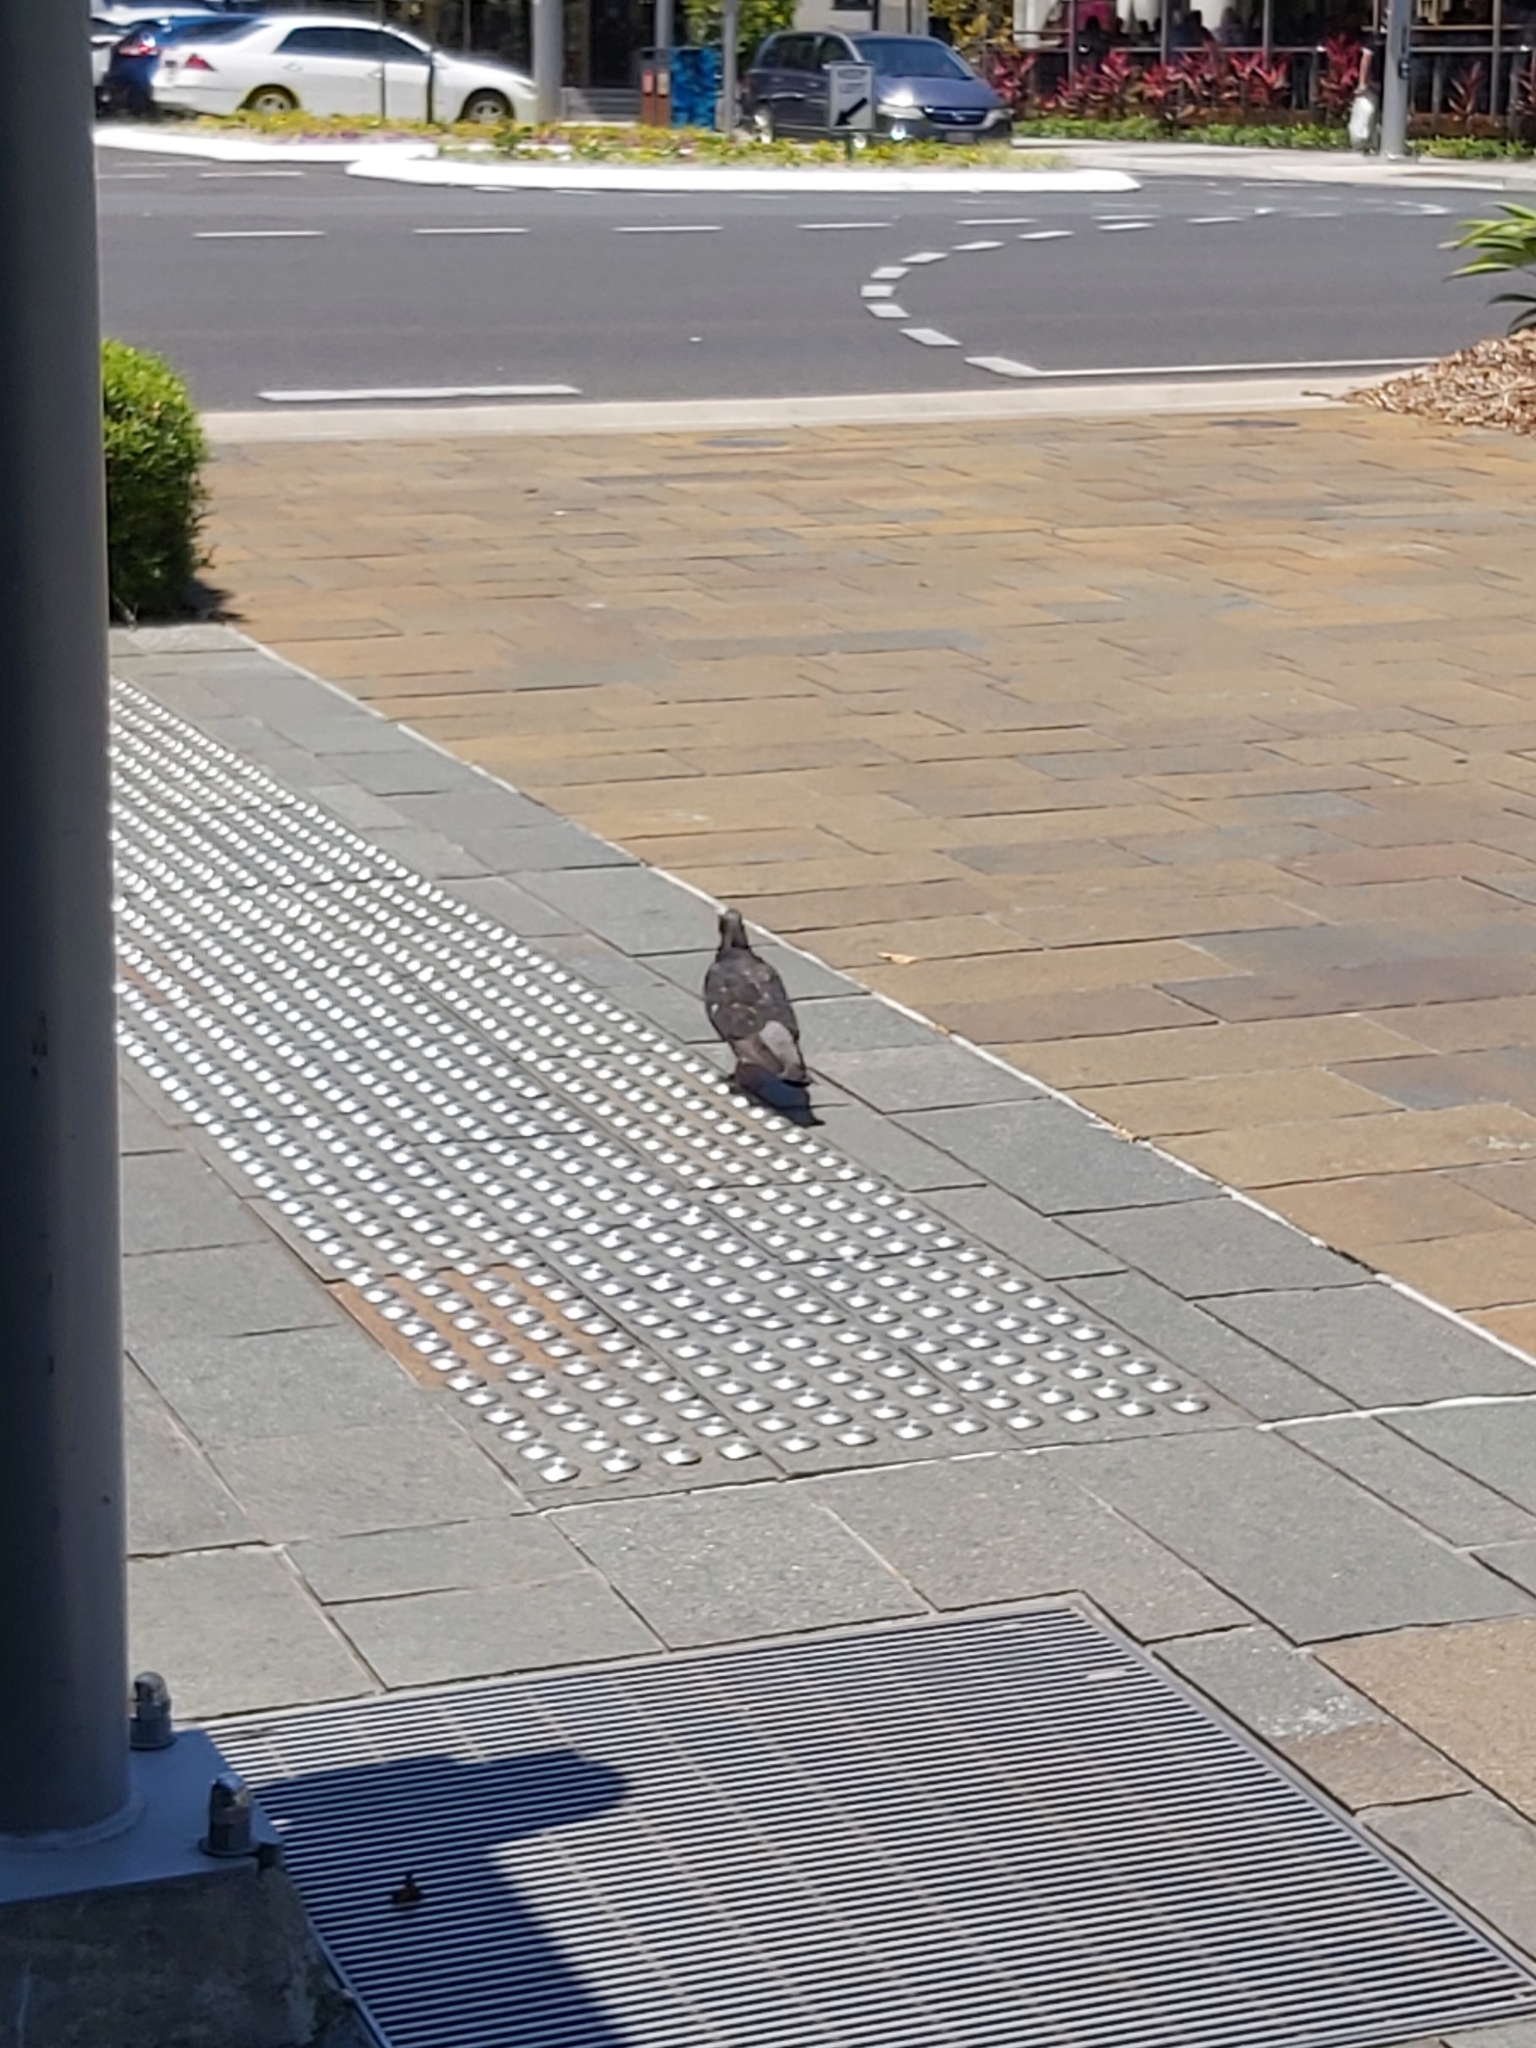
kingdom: Animalia
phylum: Chordata
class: Aves
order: Columbiformes
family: Columbidae
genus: Columba
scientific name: Columba livia
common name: Rock pigeon
